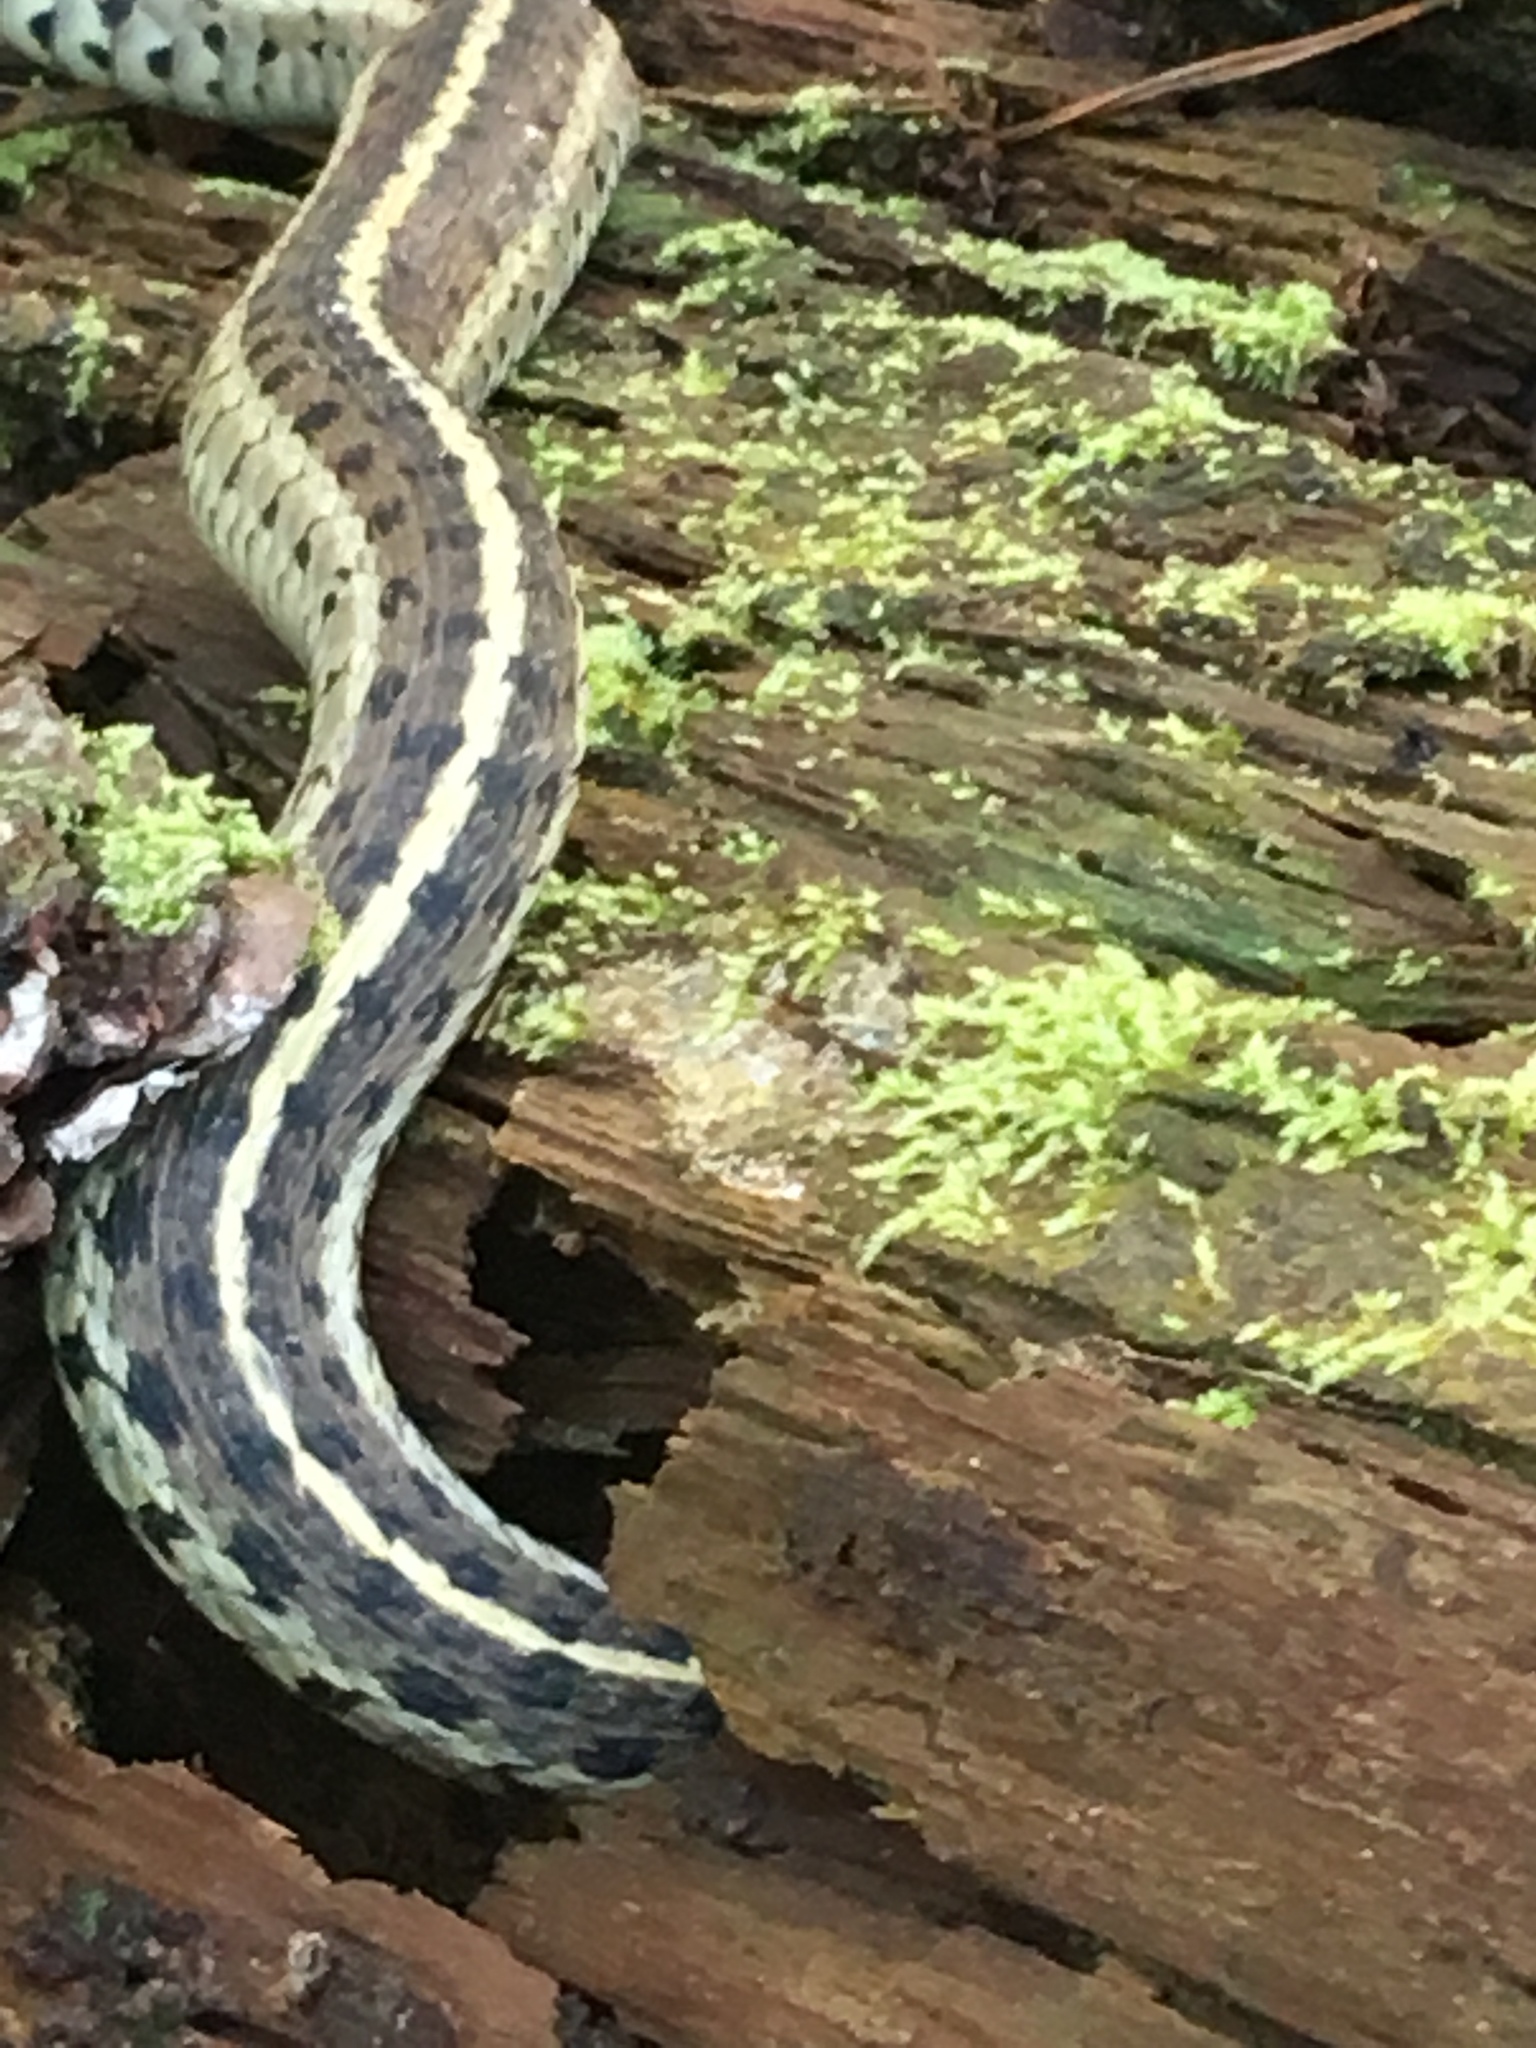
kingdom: Animalia
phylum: Chordata
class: Squamata
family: Colubridae
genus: Thamnophis
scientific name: Thamnophis sirtalis
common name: Common garter snake
